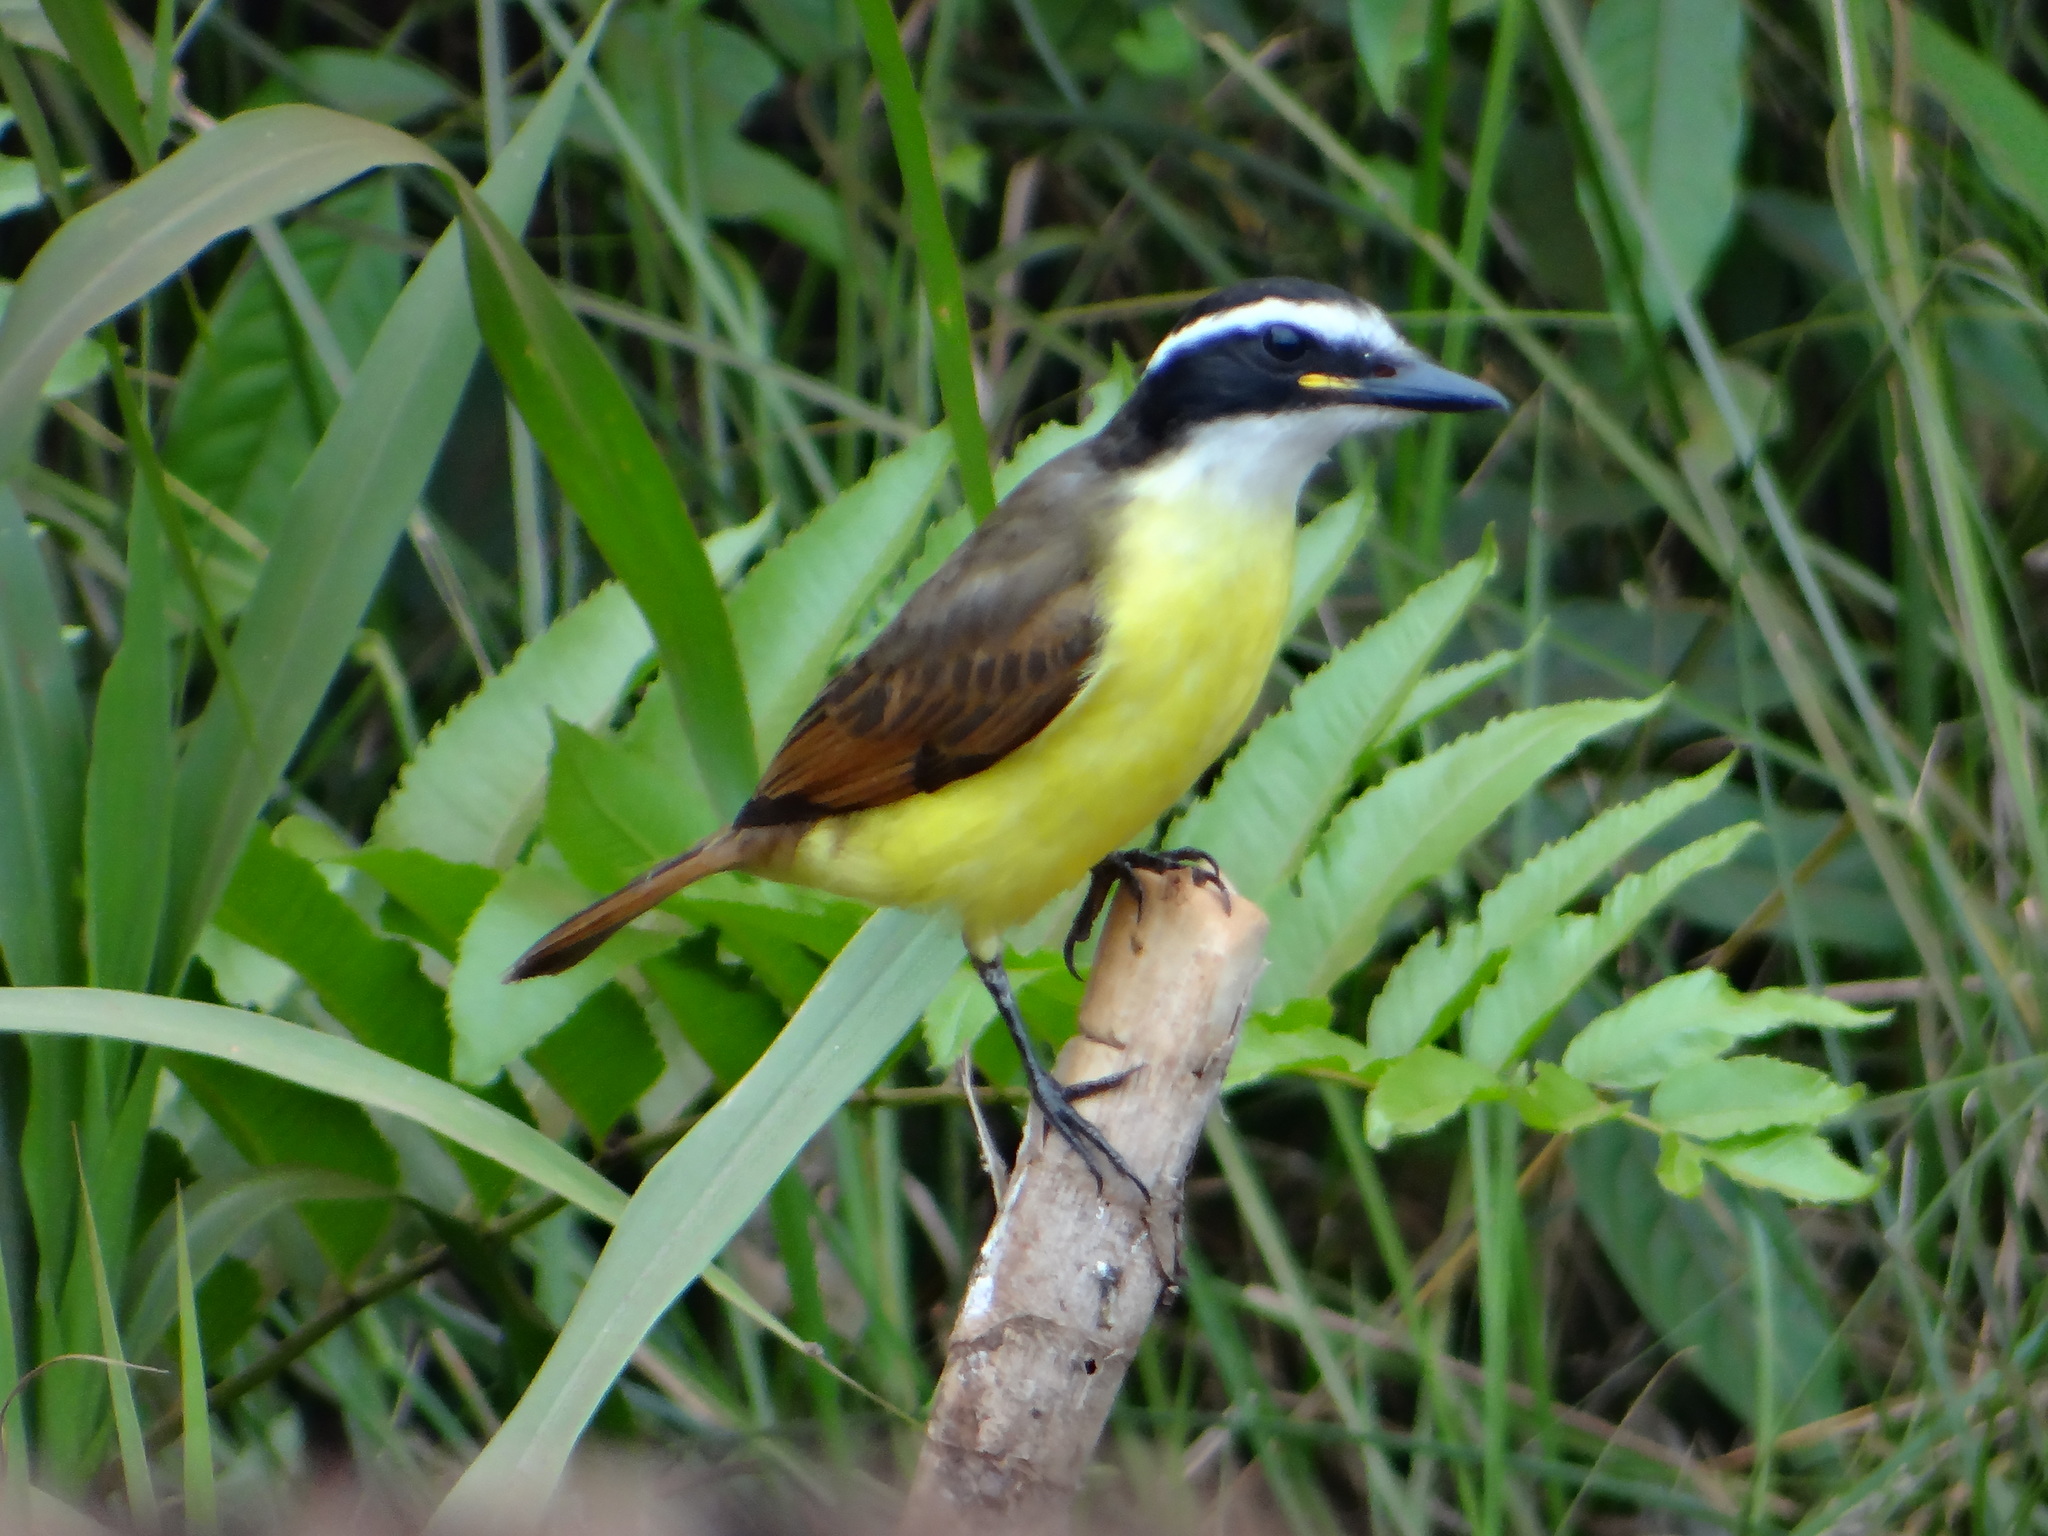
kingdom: Animalia
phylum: Chordata
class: Aves
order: Passeriformes
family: Tyrannidae
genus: Pitangus
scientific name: Pitangus sulphuratus
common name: Great kiskadee
